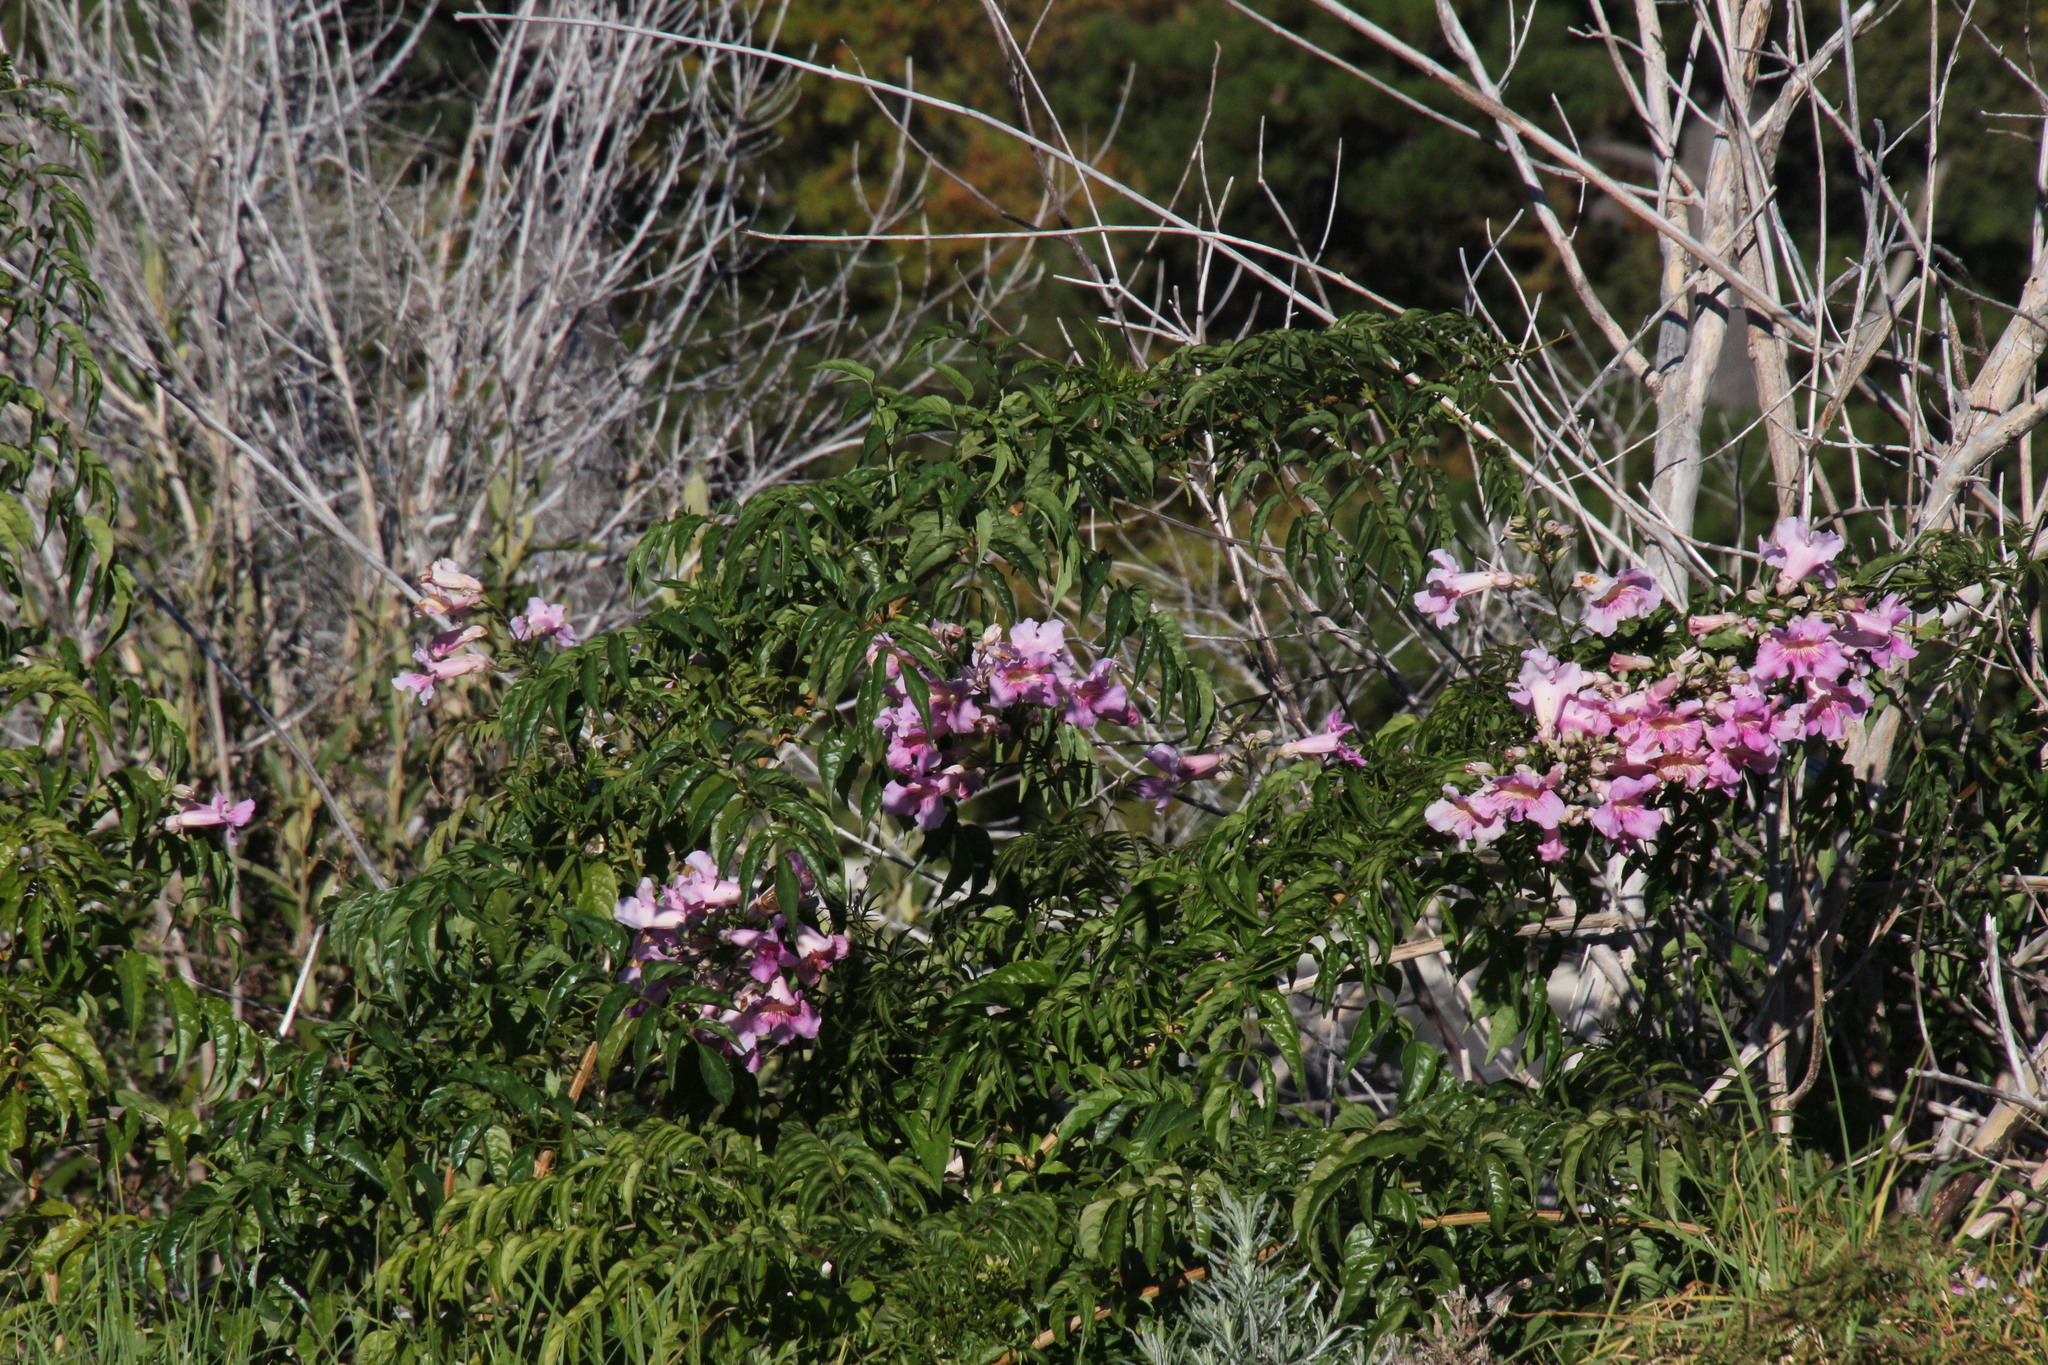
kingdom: Plantae
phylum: Tracheophyta
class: Magnoliopsida
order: Lamiales
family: Bignoniaceae
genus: Podranea
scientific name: Podranea ricasoliana
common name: Zimbabwe creeper
